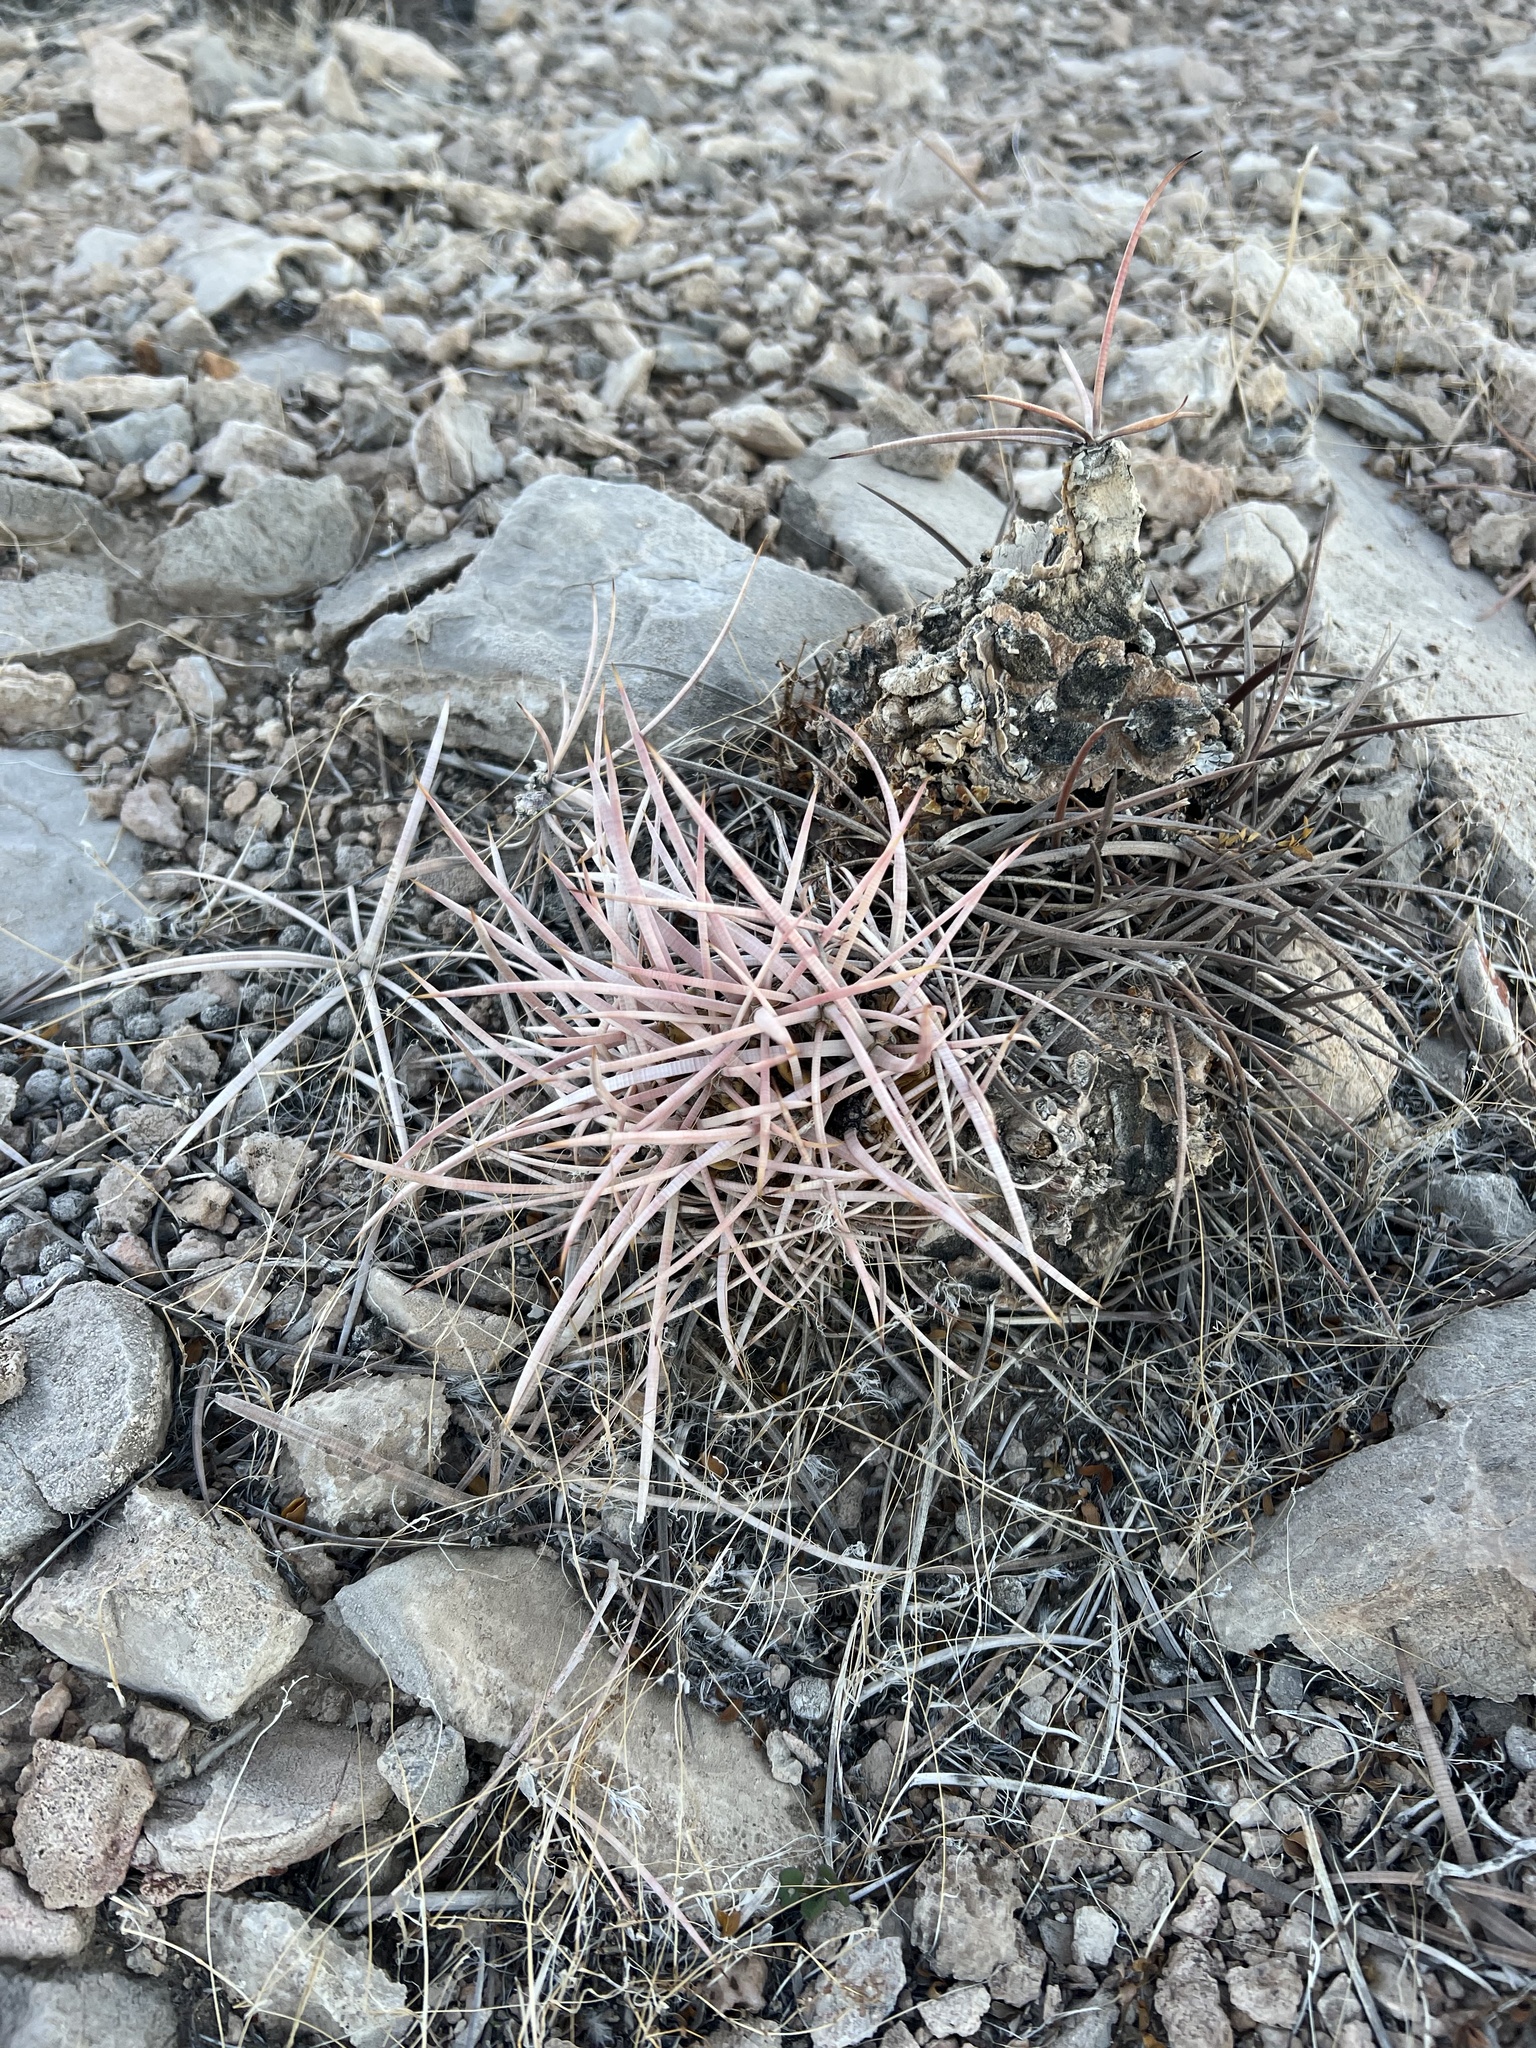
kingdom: Plantae
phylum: Tracheophyta
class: Magnoliopsida
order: Caryophyllales
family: Cactaceae
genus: Echinocactus
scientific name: Echinocactus polycephalus
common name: Cottontop cactus
